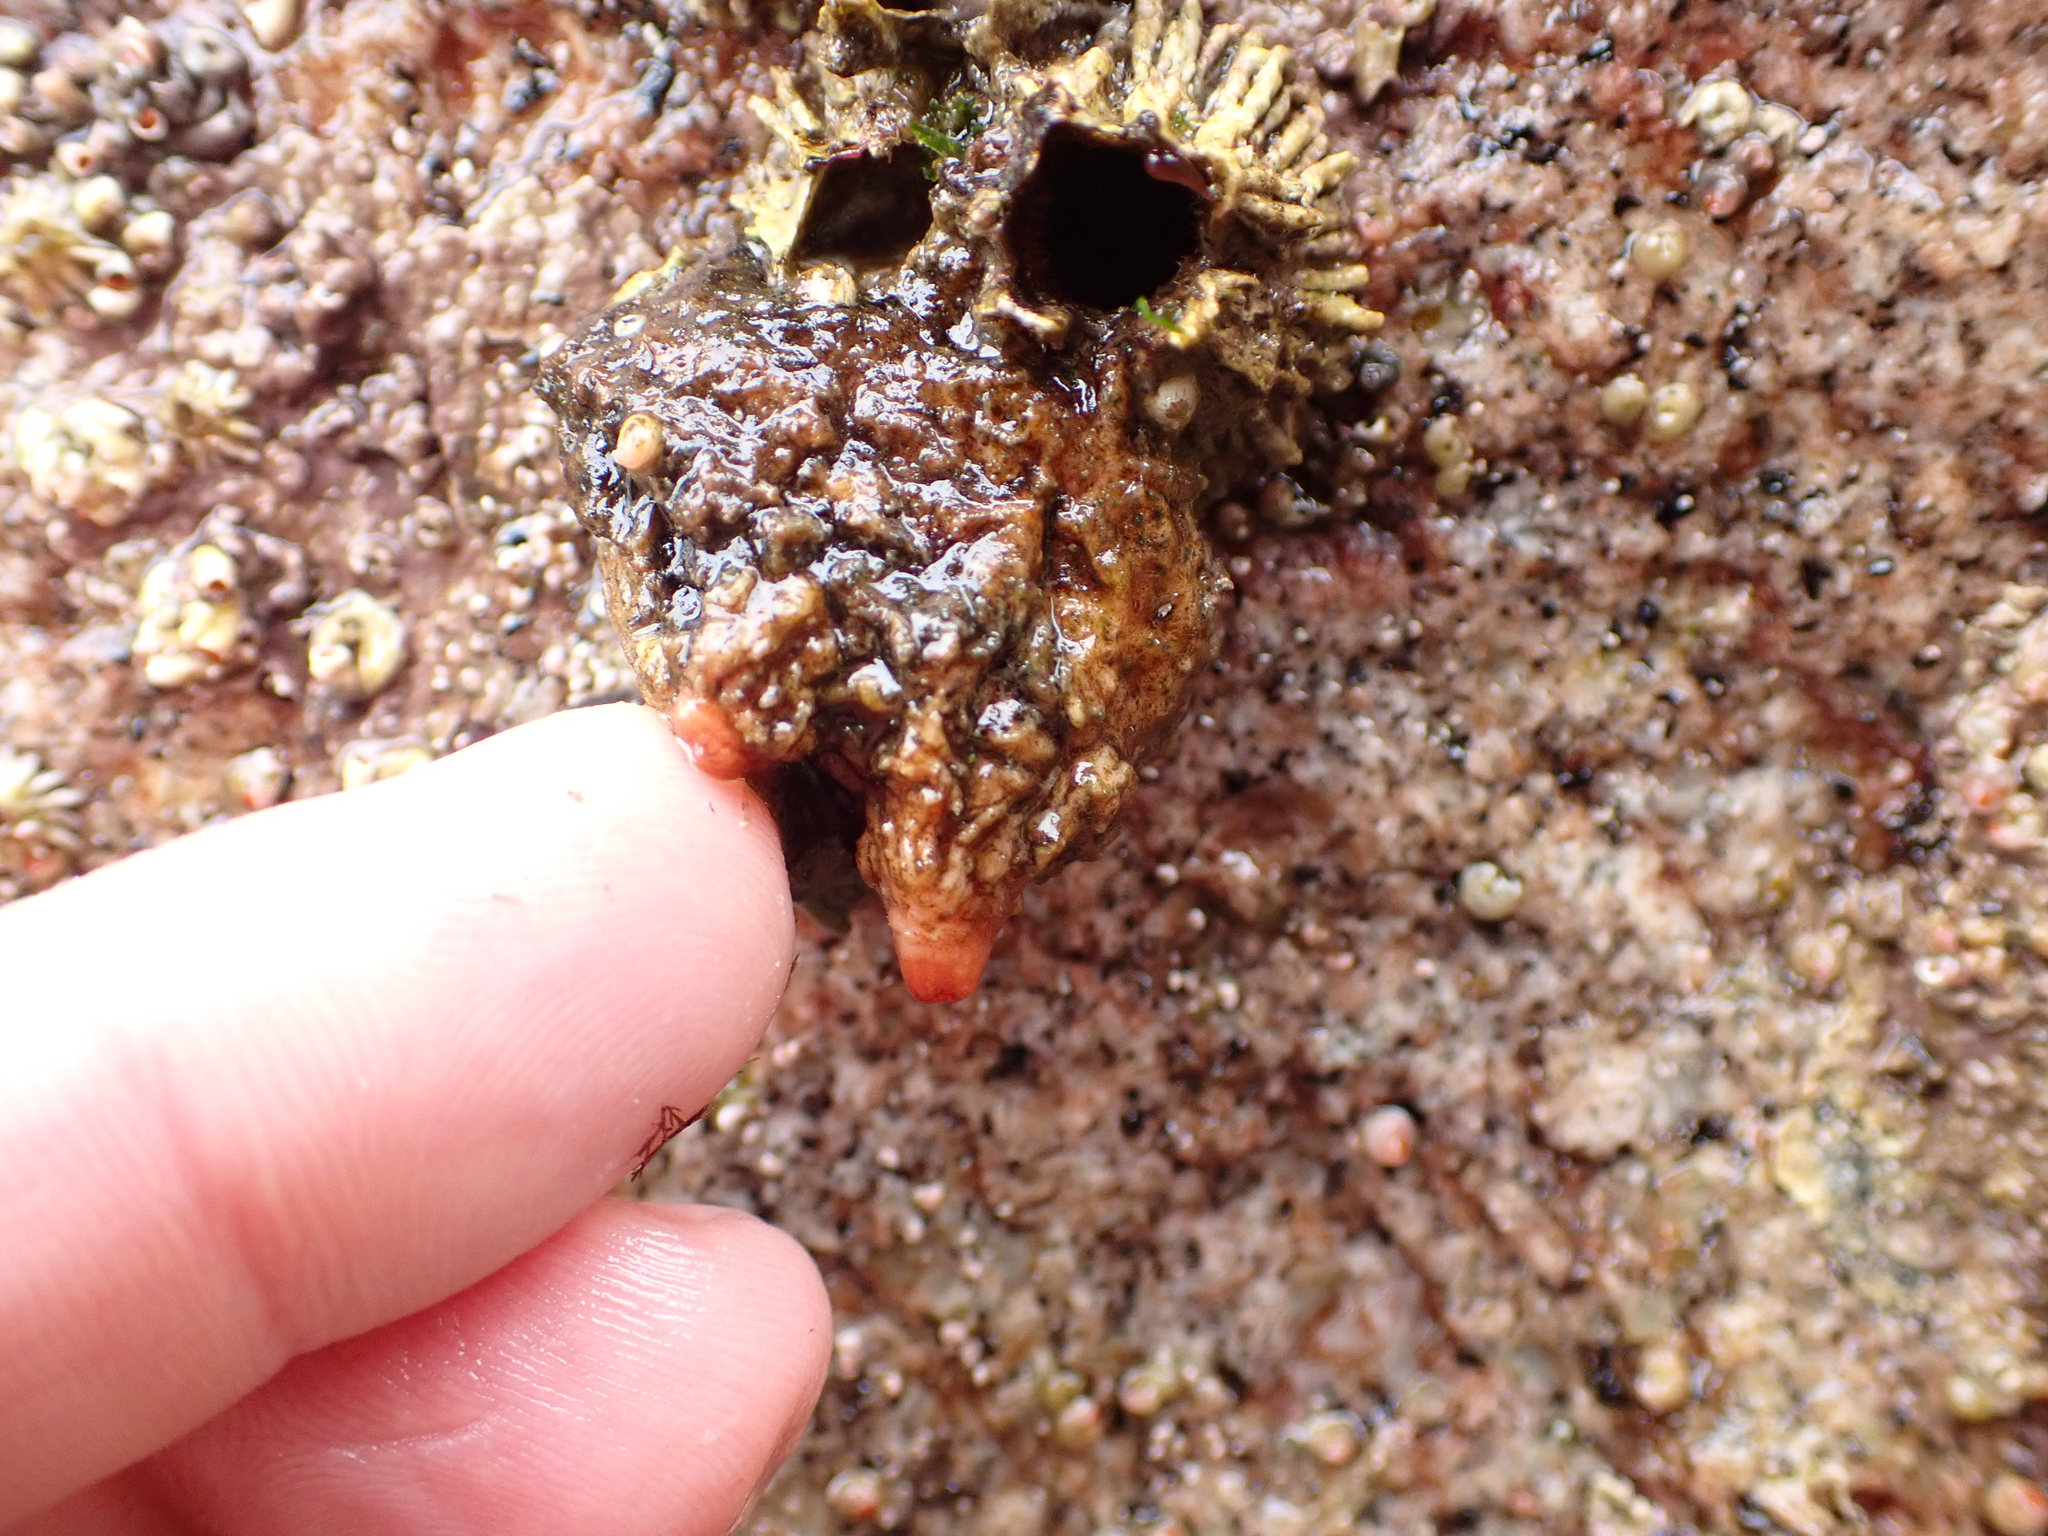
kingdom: Animalia
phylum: Chordata
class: Ascidiacea
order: Stolidobranchia
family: Pyuridae
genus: Pyura
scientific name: Pyura haustor
